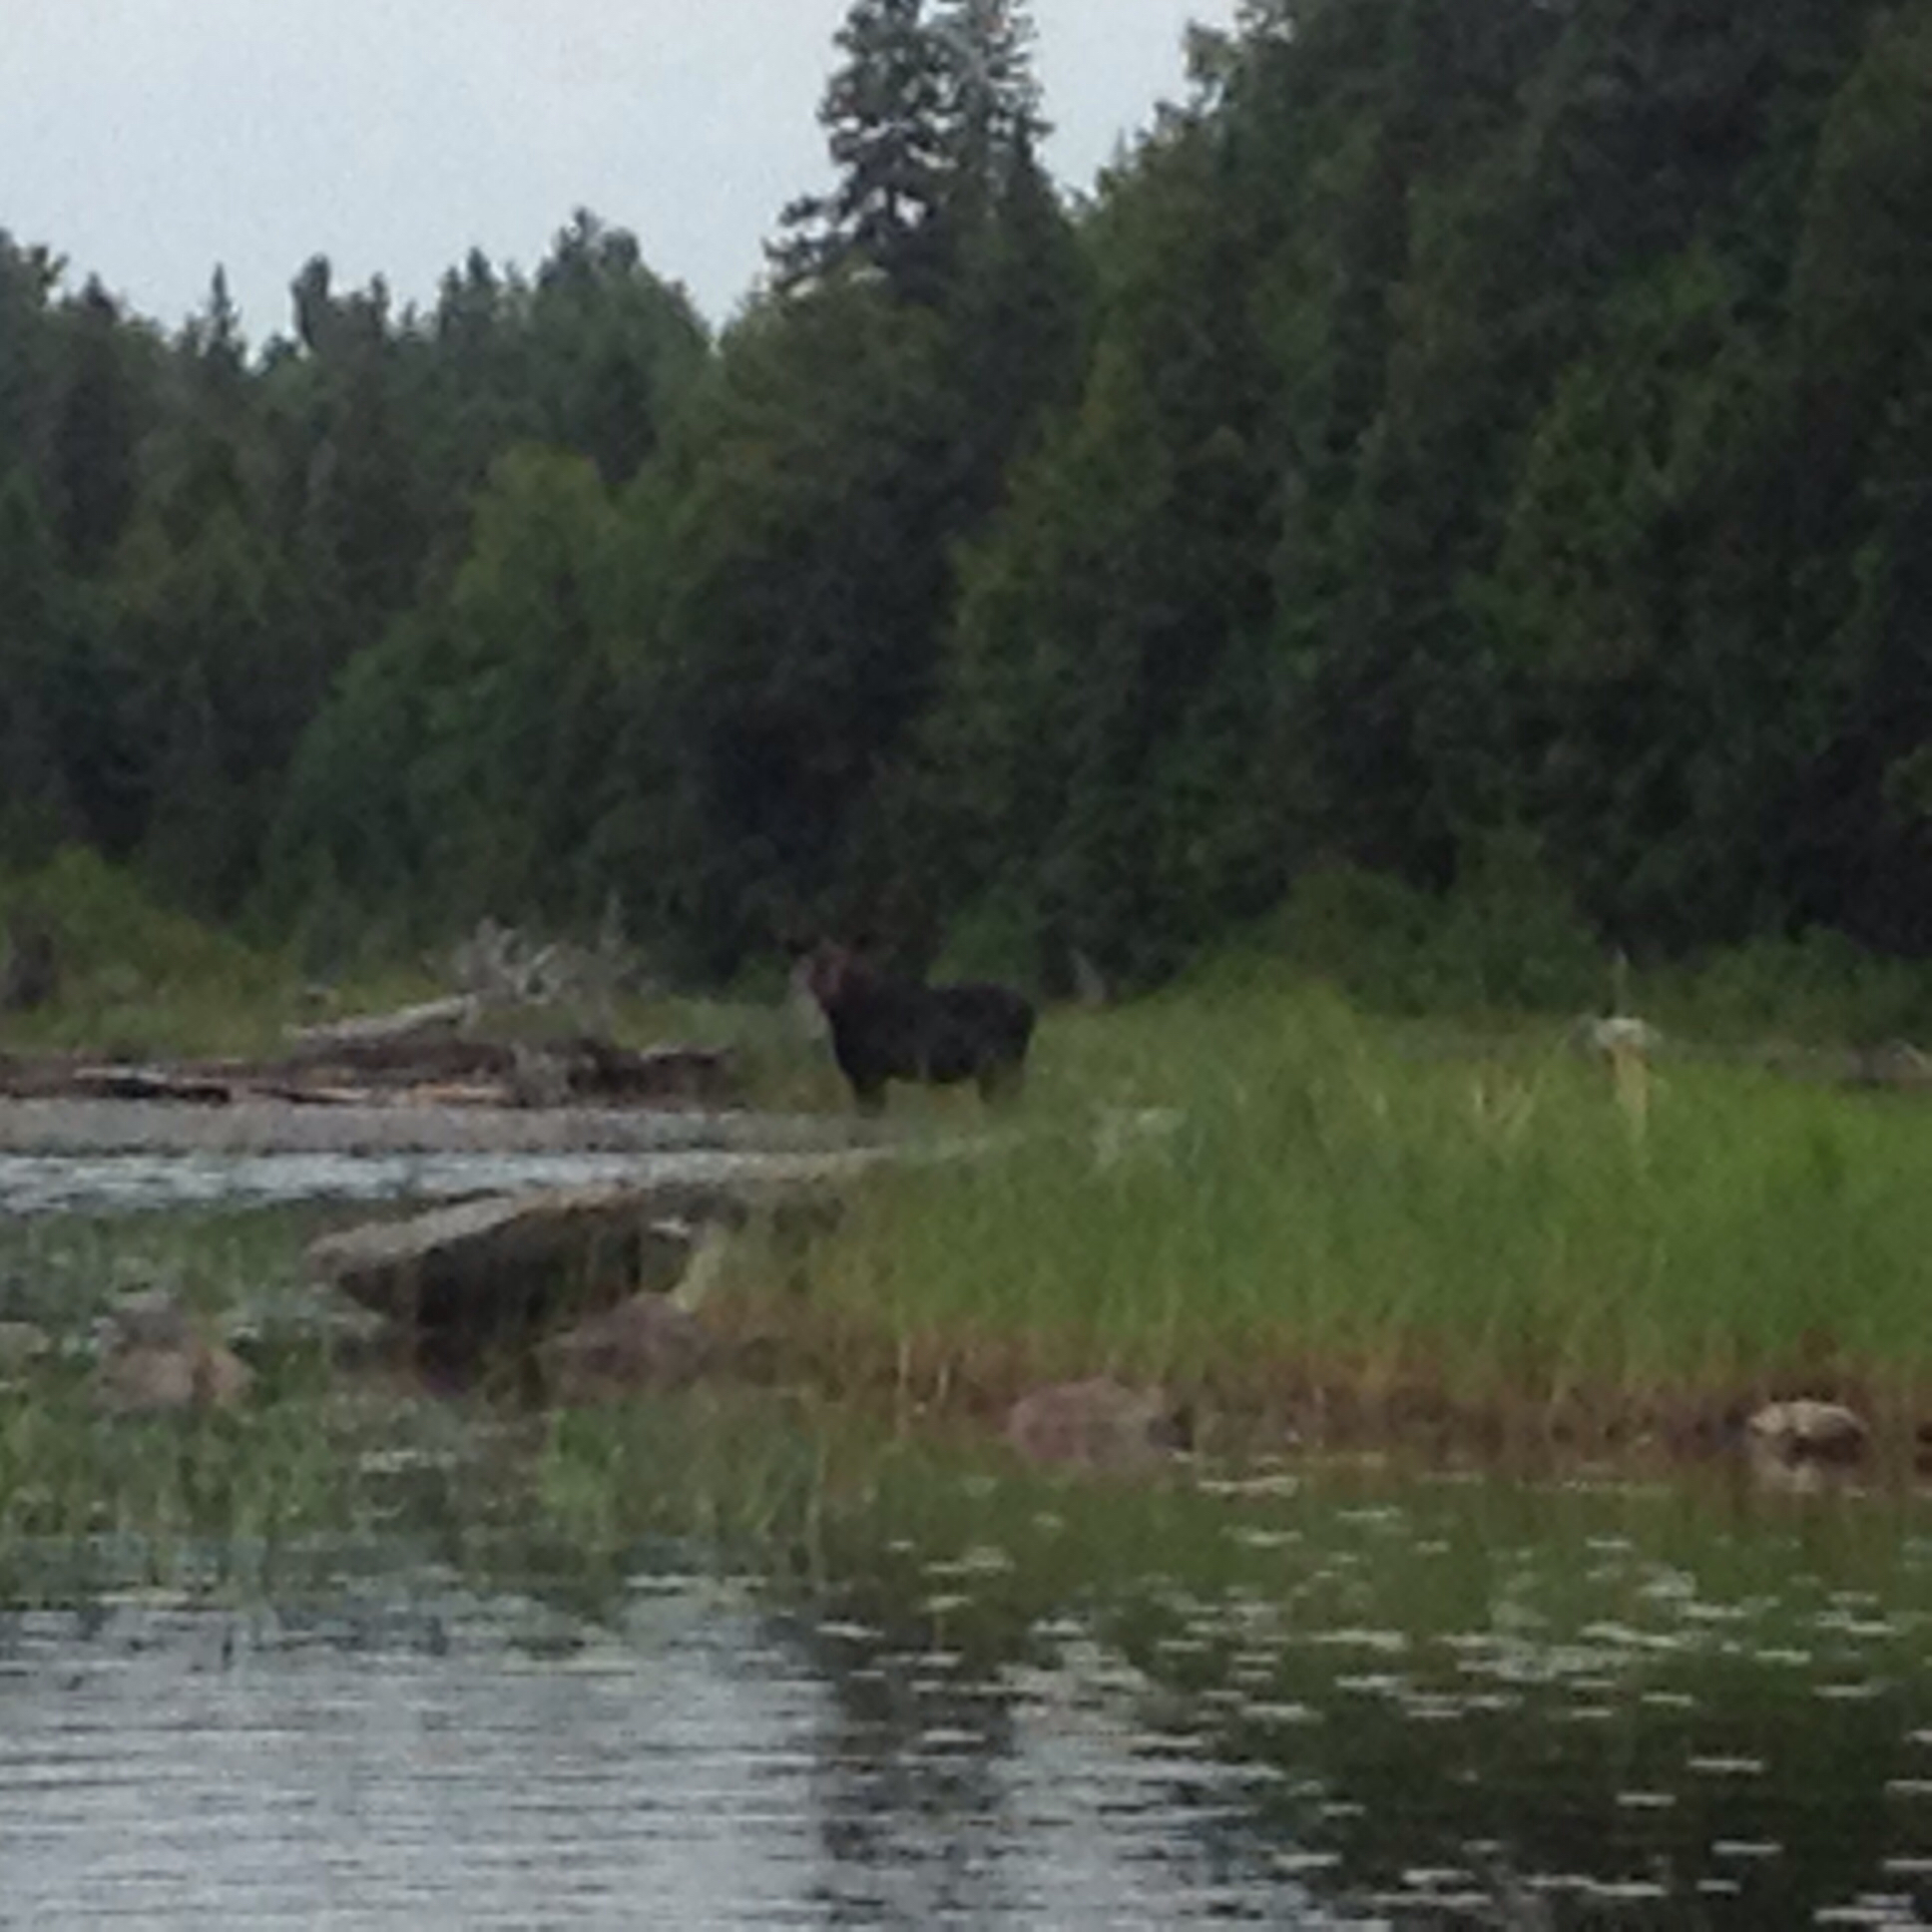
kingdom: Animalia
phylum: Chordata
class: Mammalia
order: Artiodactyla
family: Cervidae
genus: Alces
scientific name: Alces alces
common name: Moose
